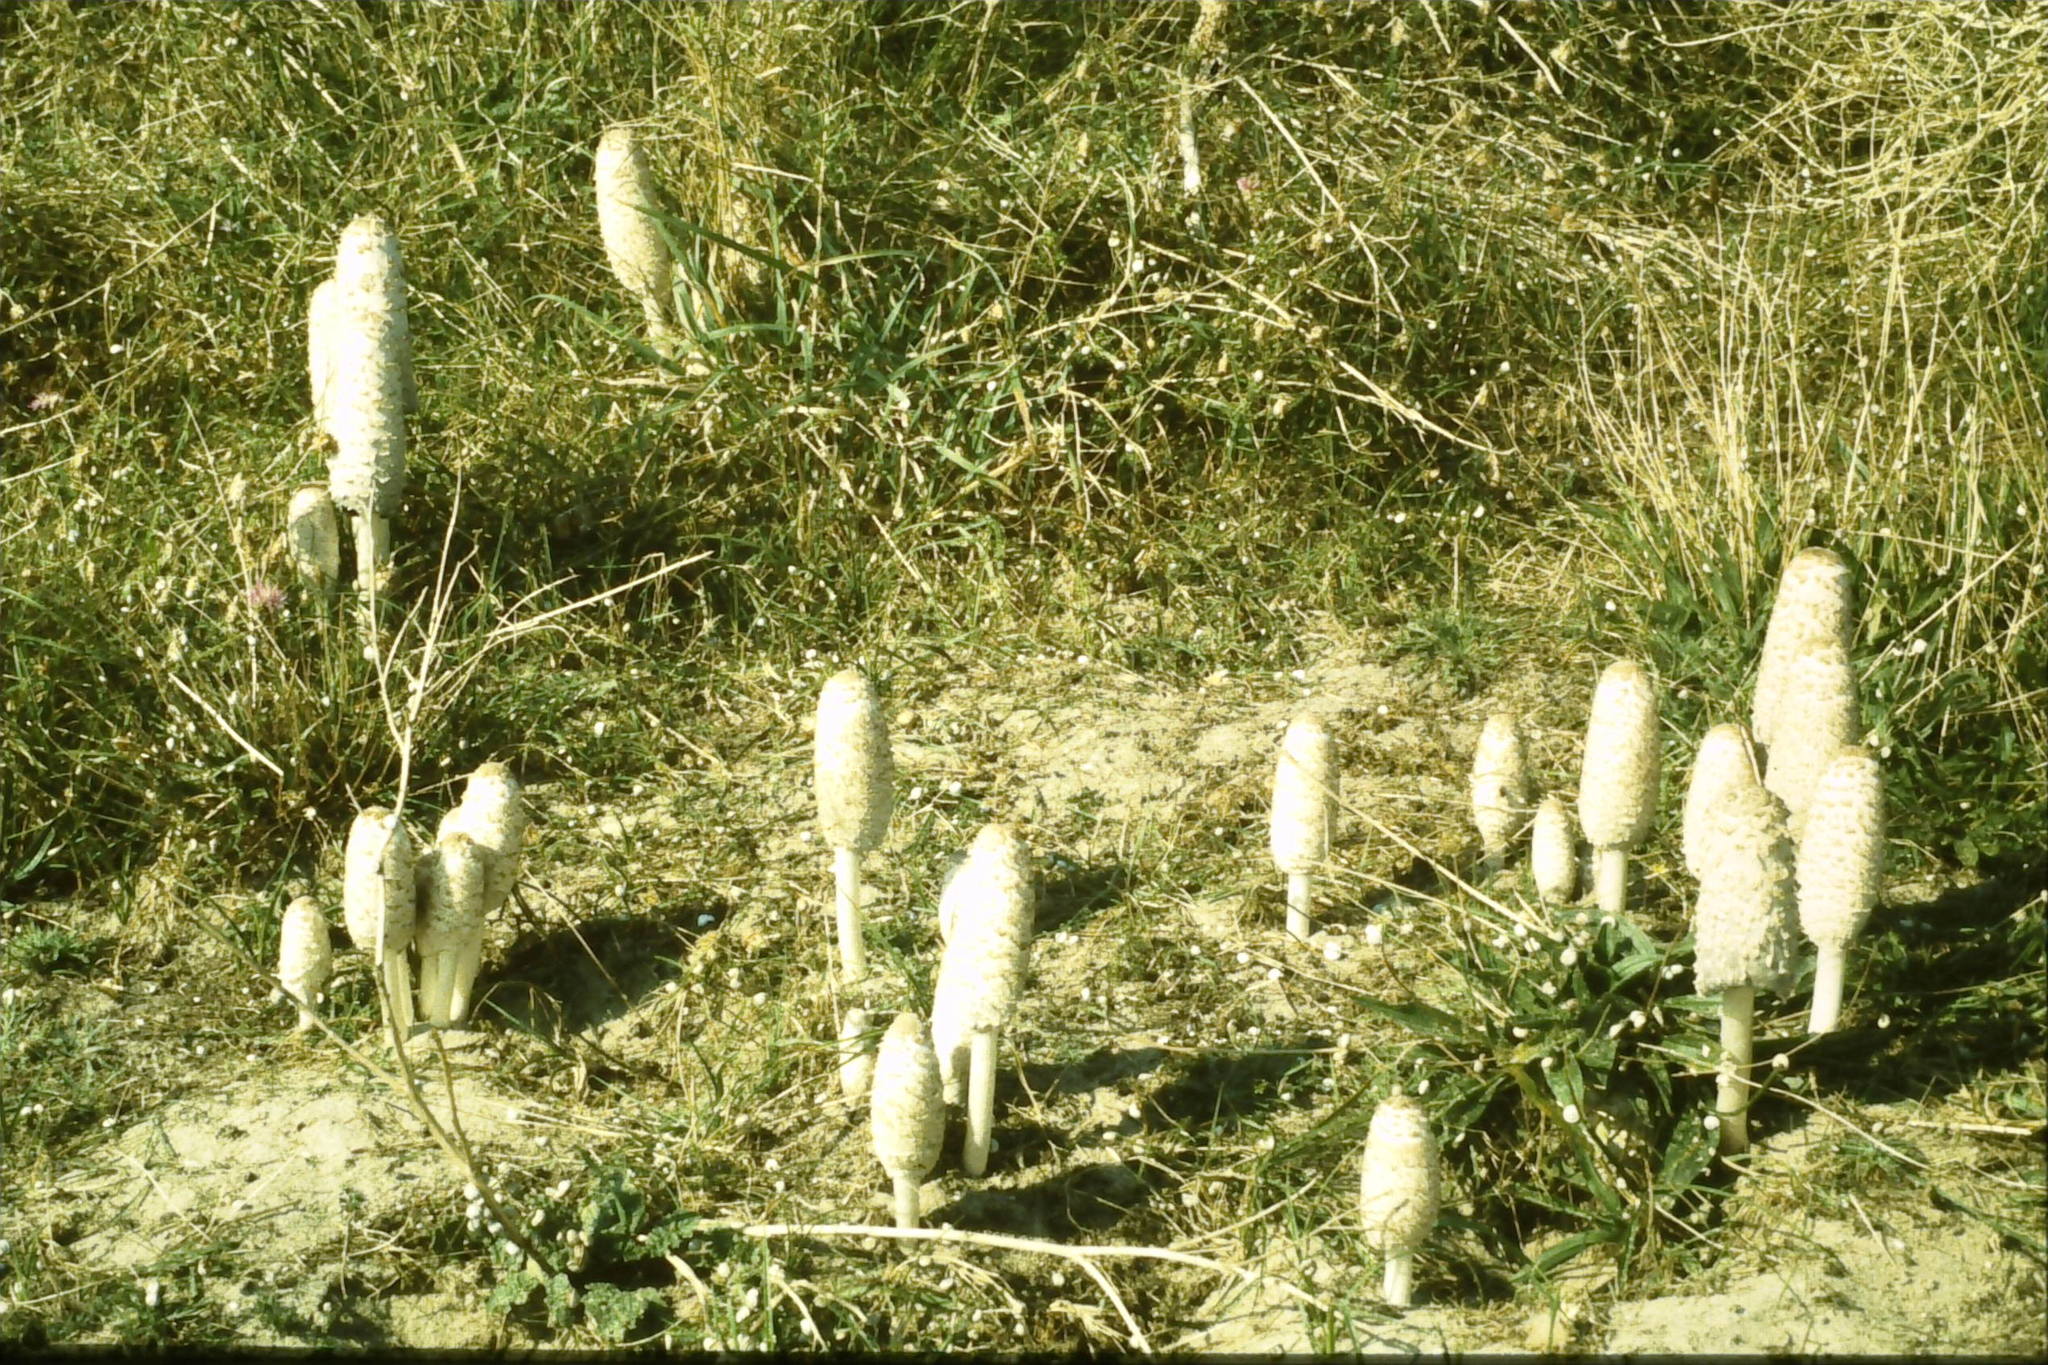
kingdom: Fungi
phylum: Basidiomycota
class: Agaricomycetes
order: Agaricales
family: Agaricaceae
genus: Coprinus
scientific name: Coprinus comatus
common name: Lawyer's wig
